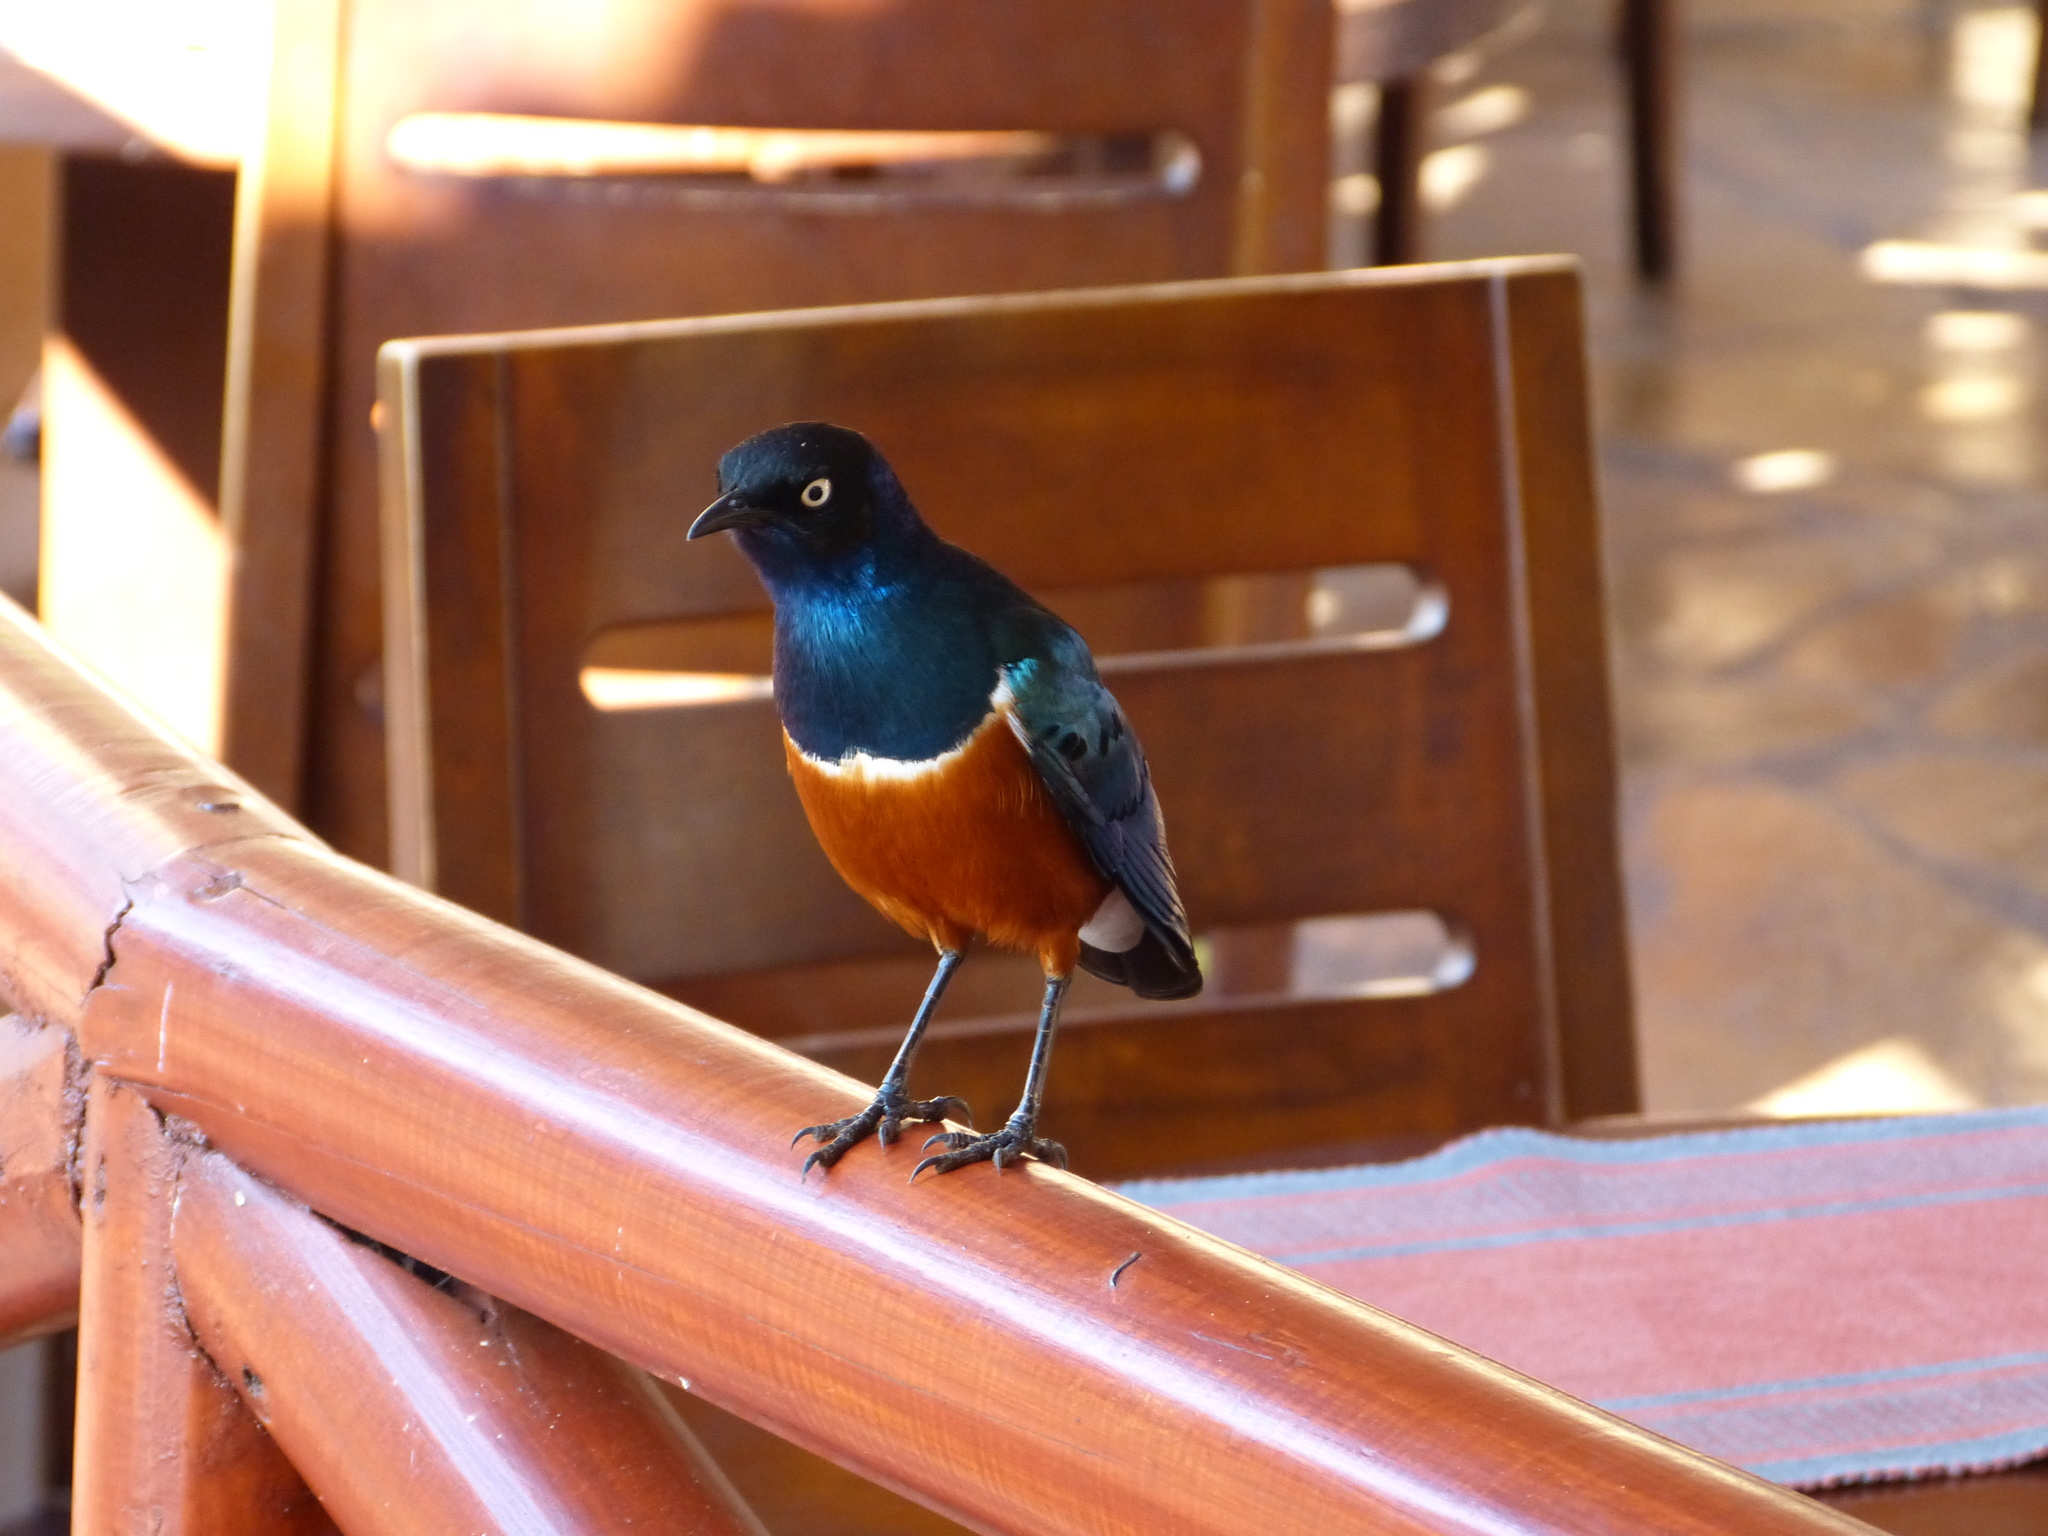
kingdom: Animalia
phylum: Chordata
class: Aves
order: Passeriformes
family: Sturnidae
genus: Lamprotornis
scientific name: Lamprotornis superbus
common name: Superb starling
